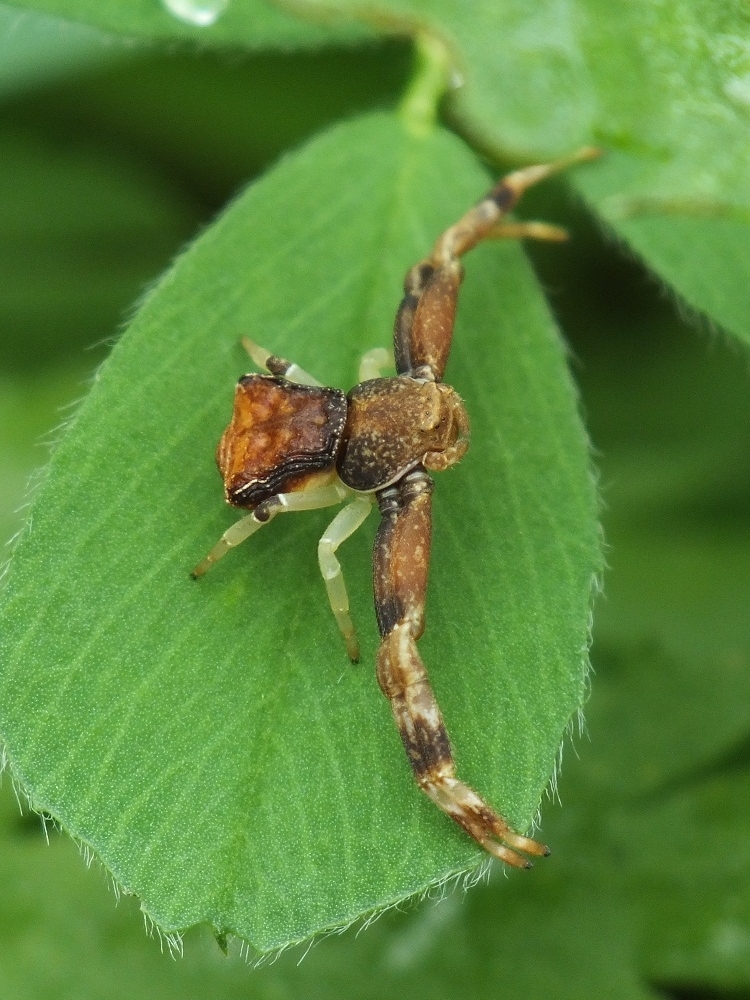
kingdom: Animalia
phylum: Arthropoda
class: Arachnida
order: Araneae
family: Thomisidae
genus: Pistius
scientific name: Pistius truncatus
